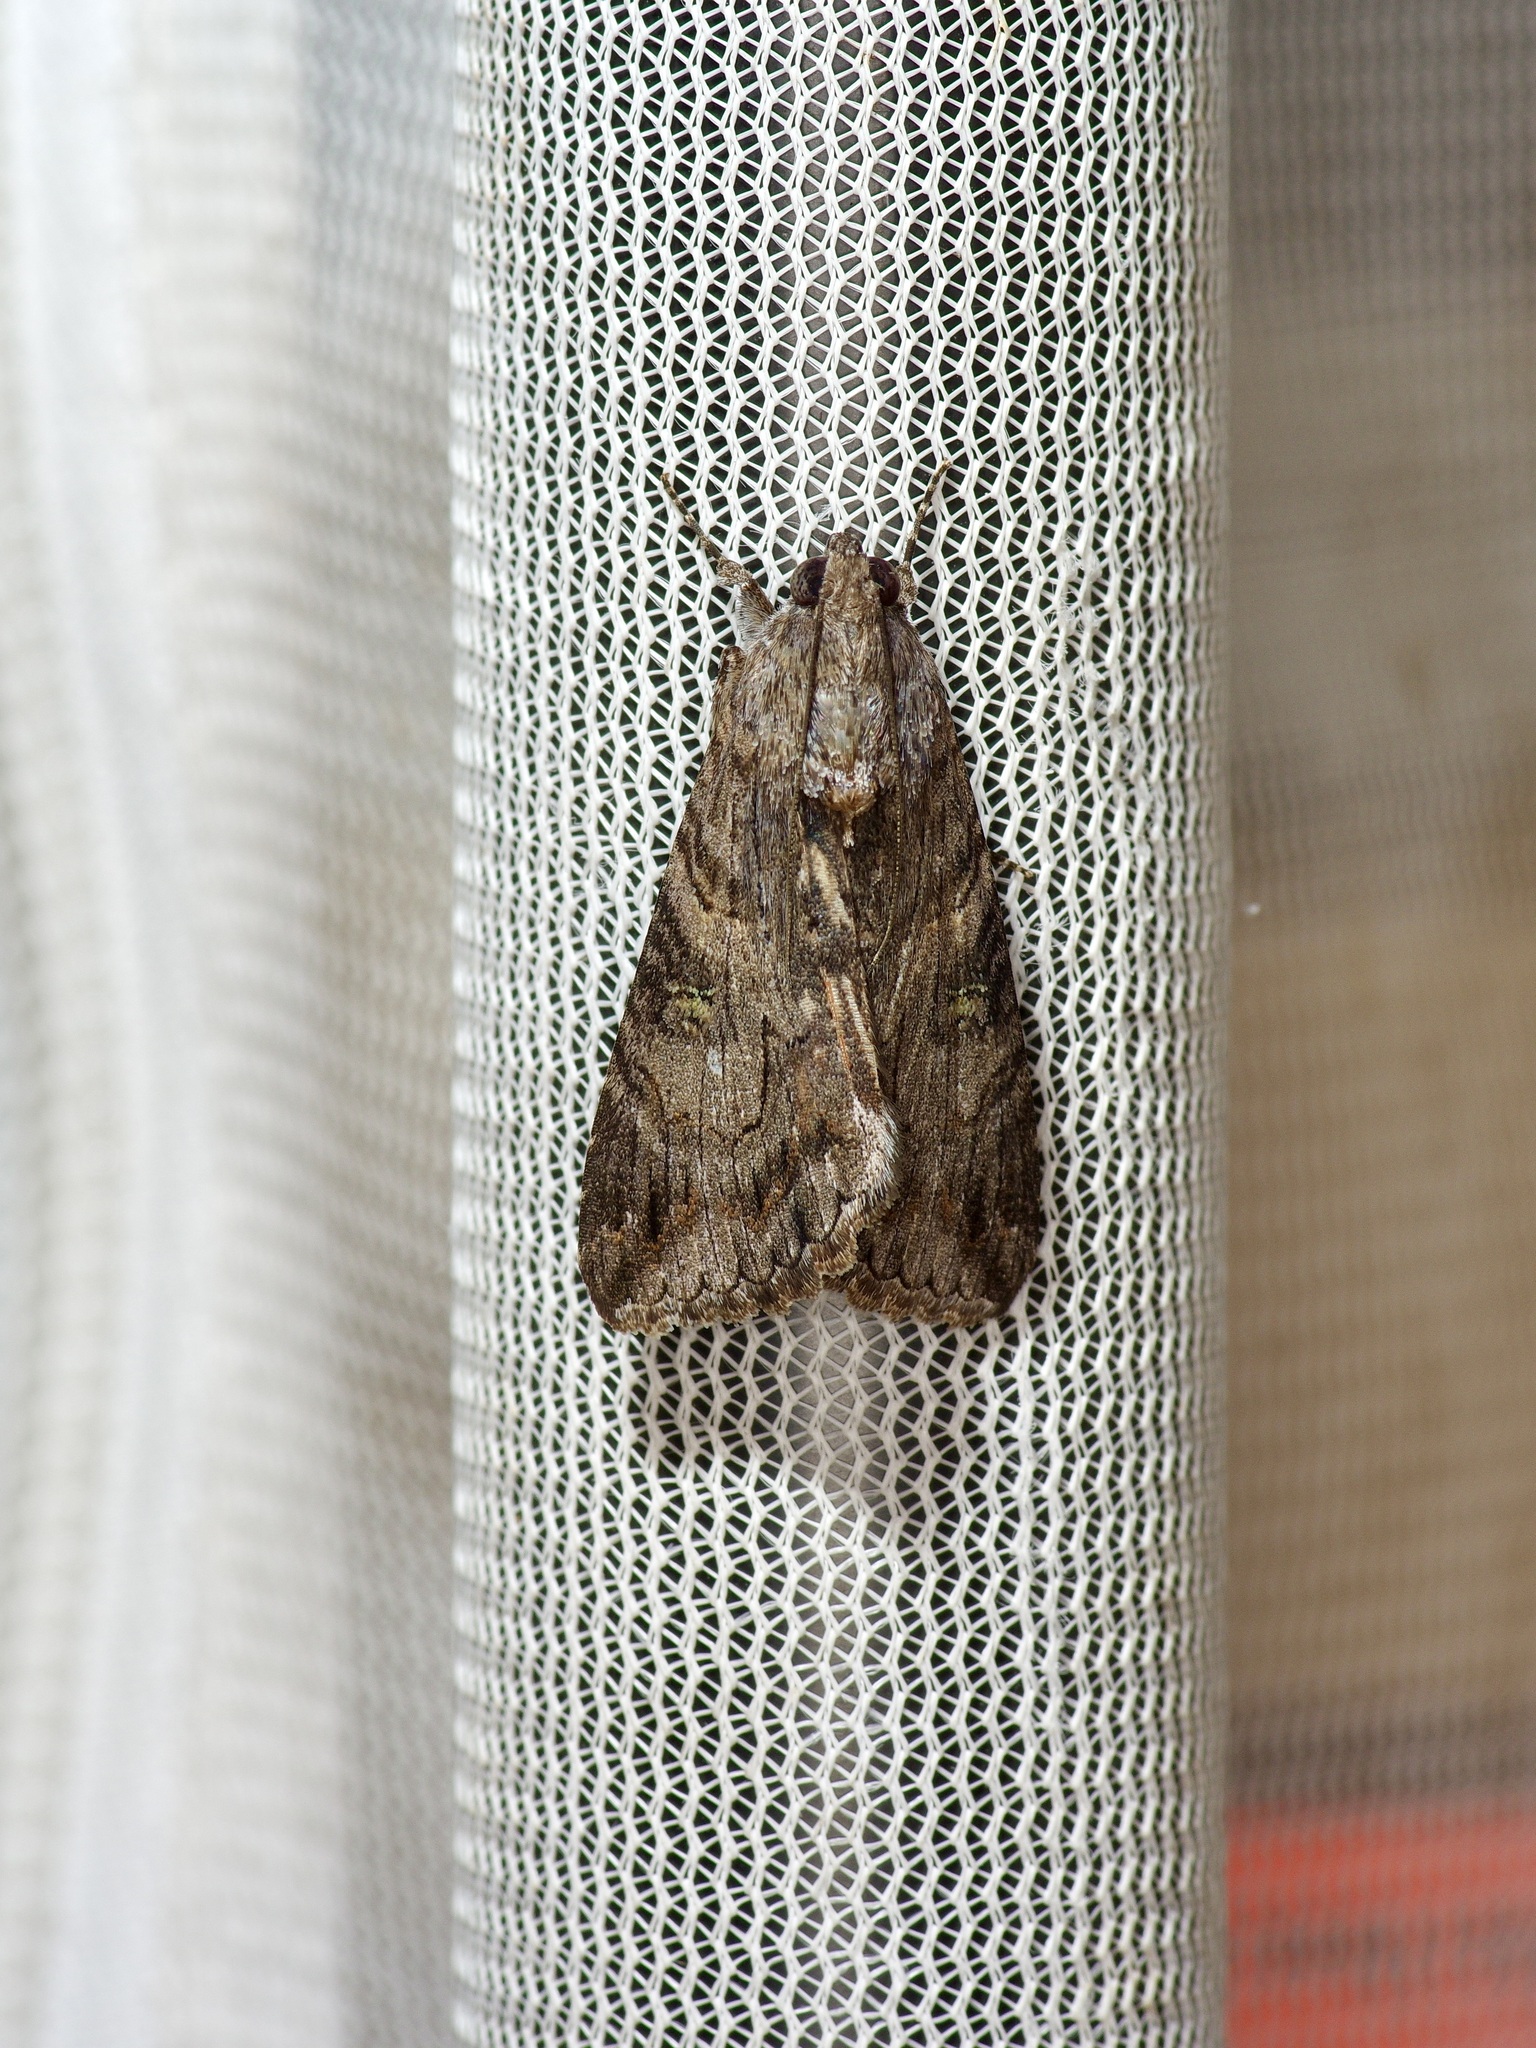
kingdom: Animalia
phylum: Arthropoda
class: Insecta
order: Lepidoptera
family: Erebidae
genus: Melipotis
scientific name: Melipotis jucunda
